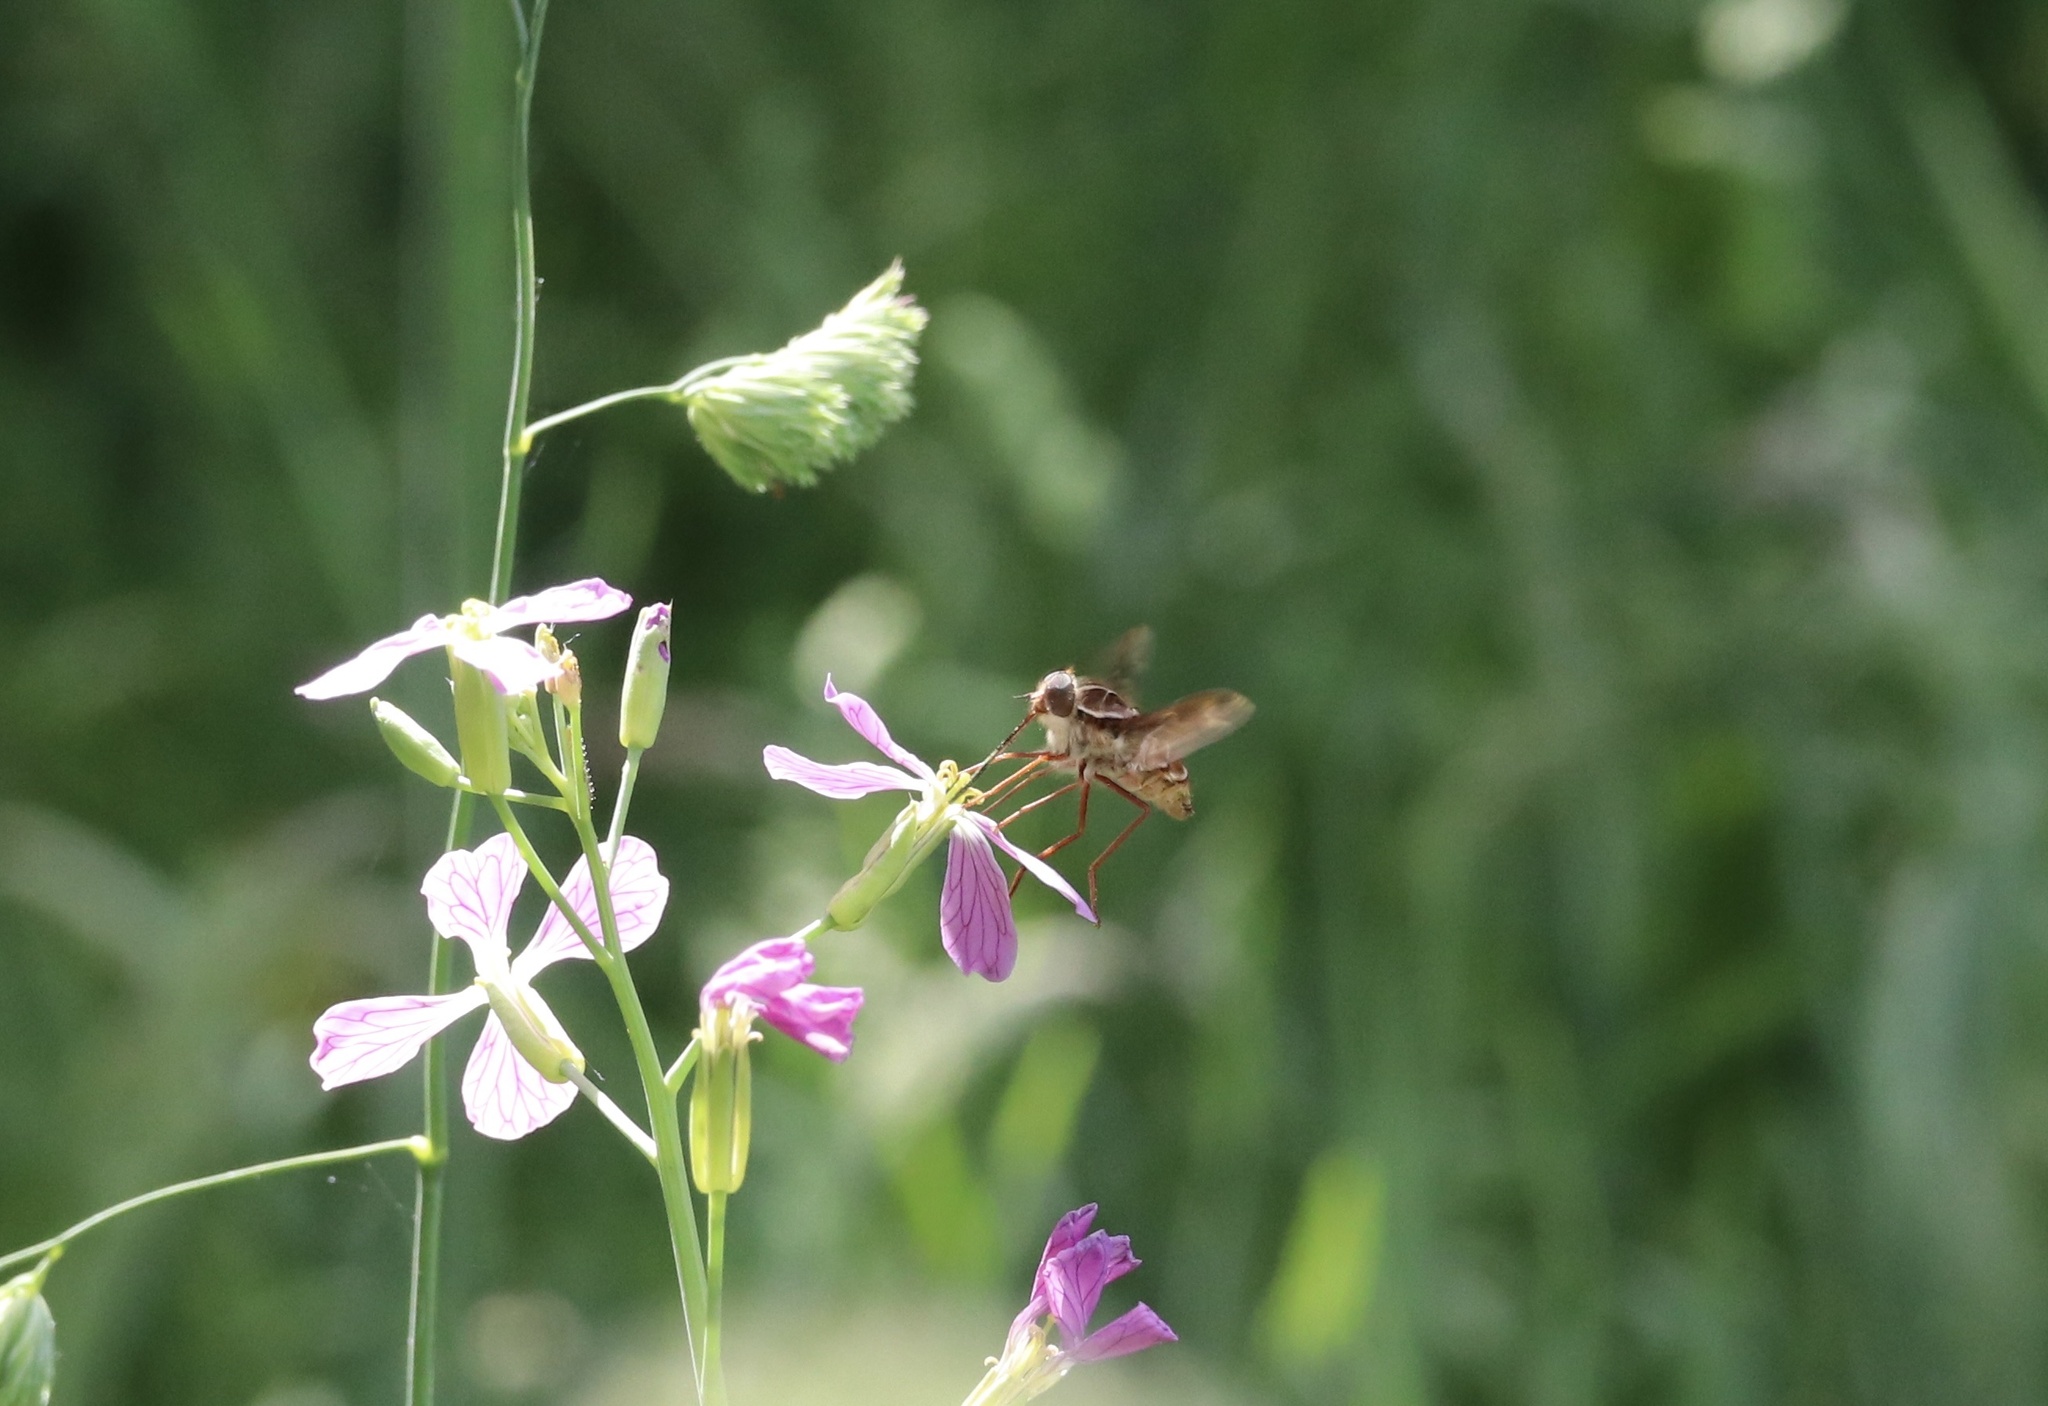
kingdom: Animalia
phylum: Arthropoda
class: Insecta
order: Diptera
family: Nemestrinidae
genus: Trichophthalma
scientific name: Trichophthalma nubipennis
